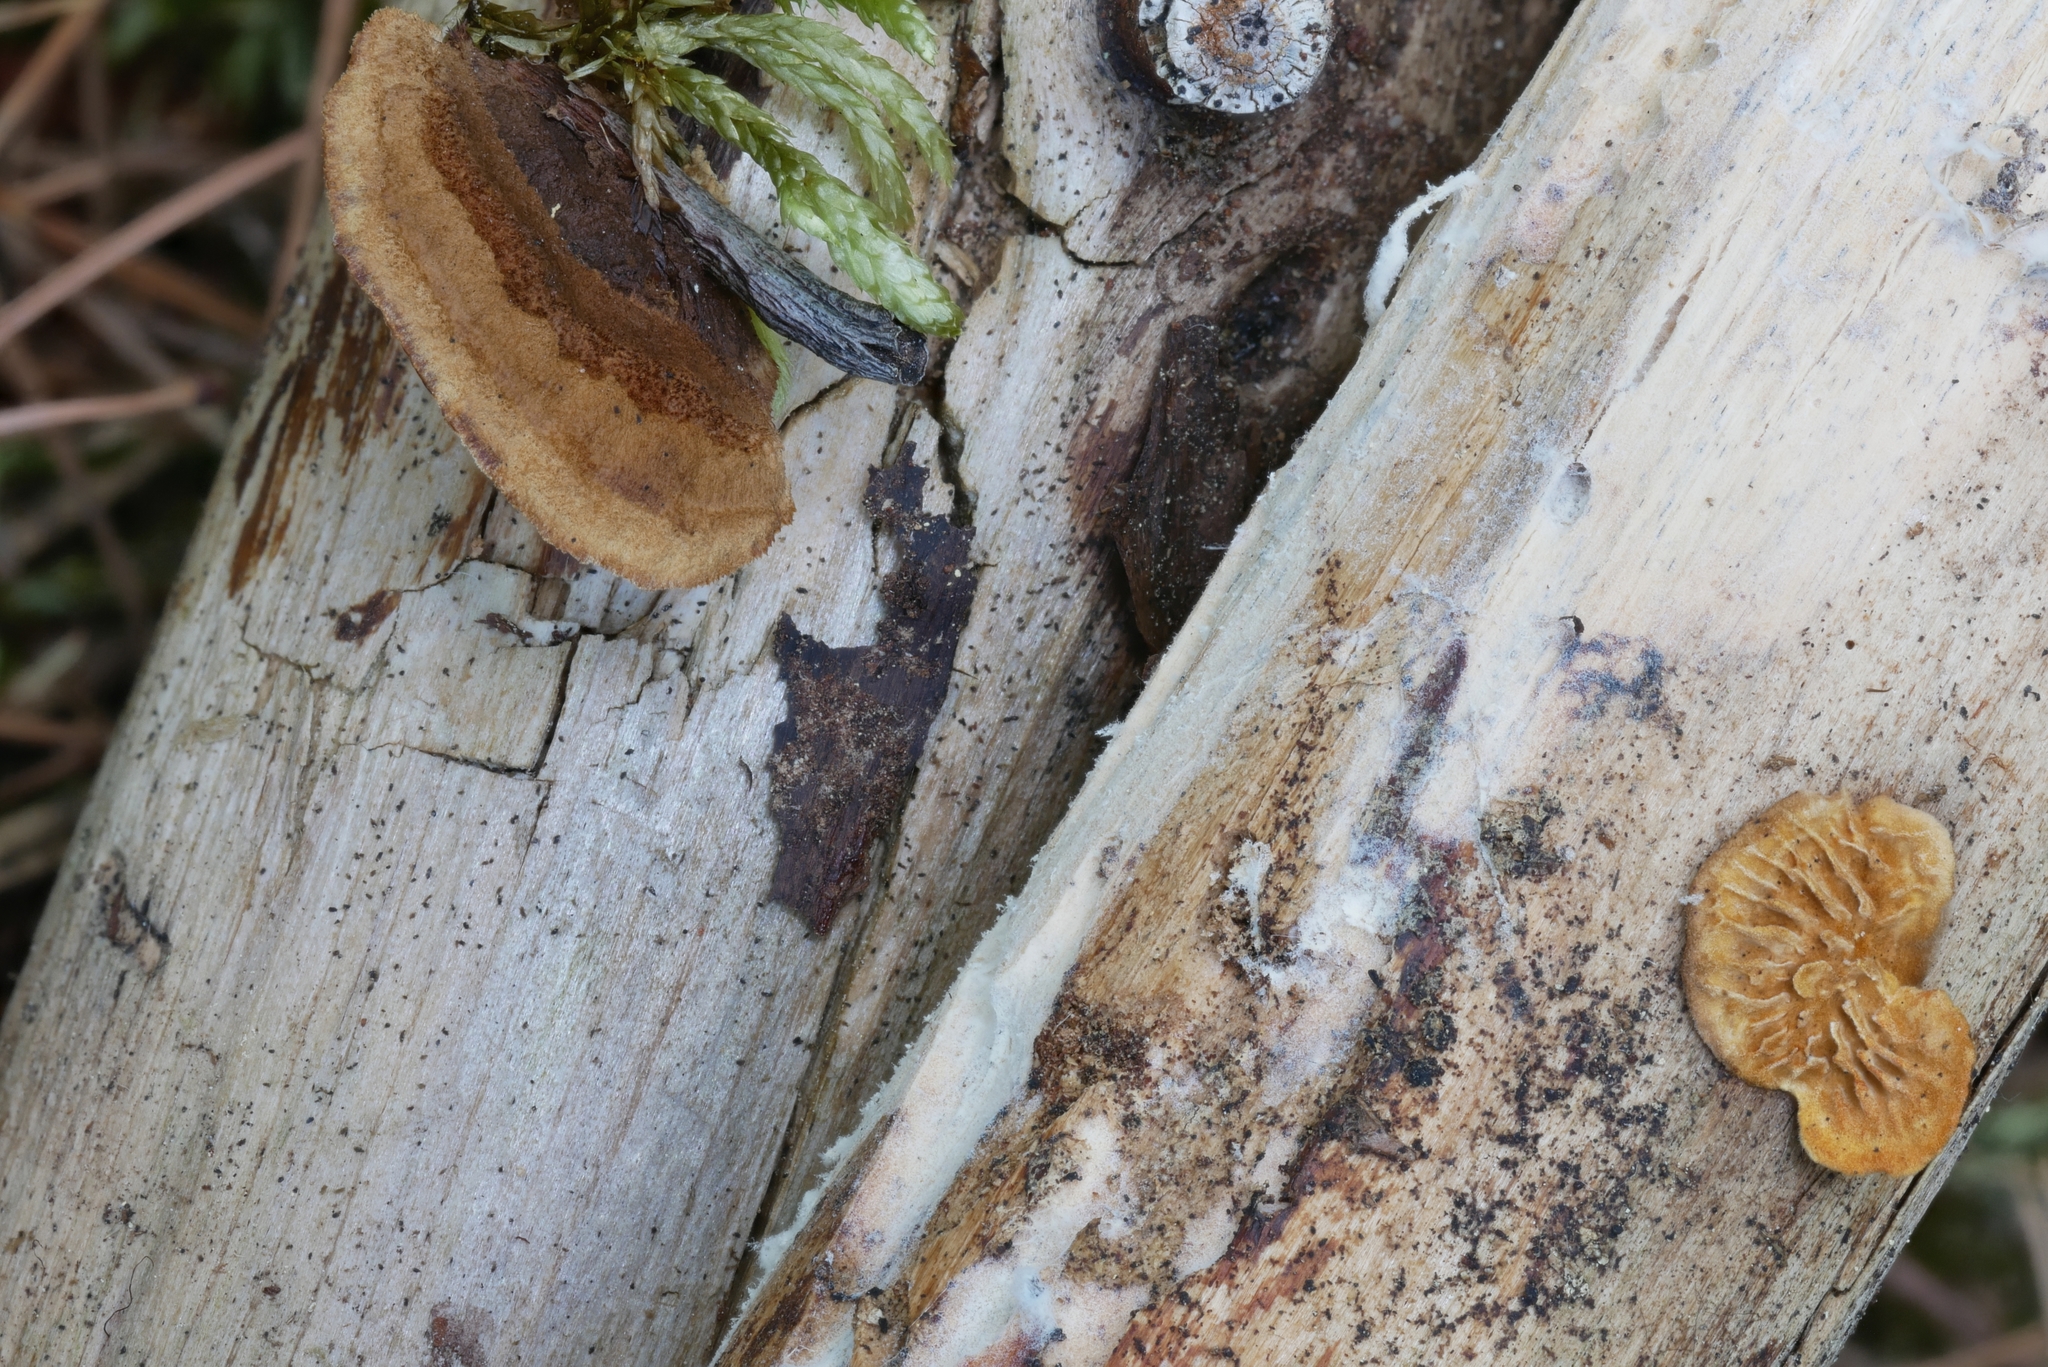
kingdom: Fungi
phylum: Basidiomycota
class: Agaricomycetes
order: Gloeophyllales
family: Gloeophyllaceae
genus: Gloeophyllum
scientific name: Gloeophyllum sepiarium
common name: Conifer mazegill
